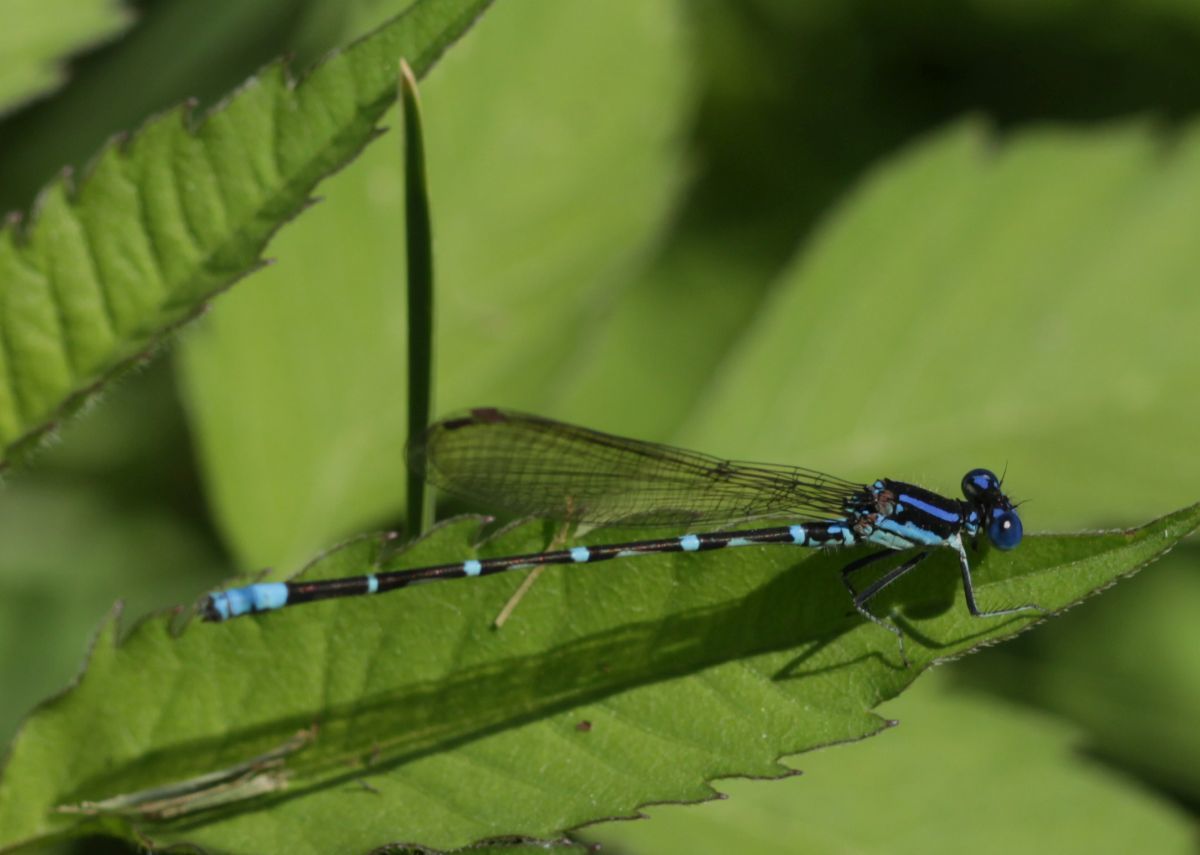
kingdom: Animalia
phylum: Arthropoda
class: Insecta
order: Odonata
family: Coenagrionidae
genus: Argia
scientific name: Argia sedula
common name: Blue-ringed dancer
